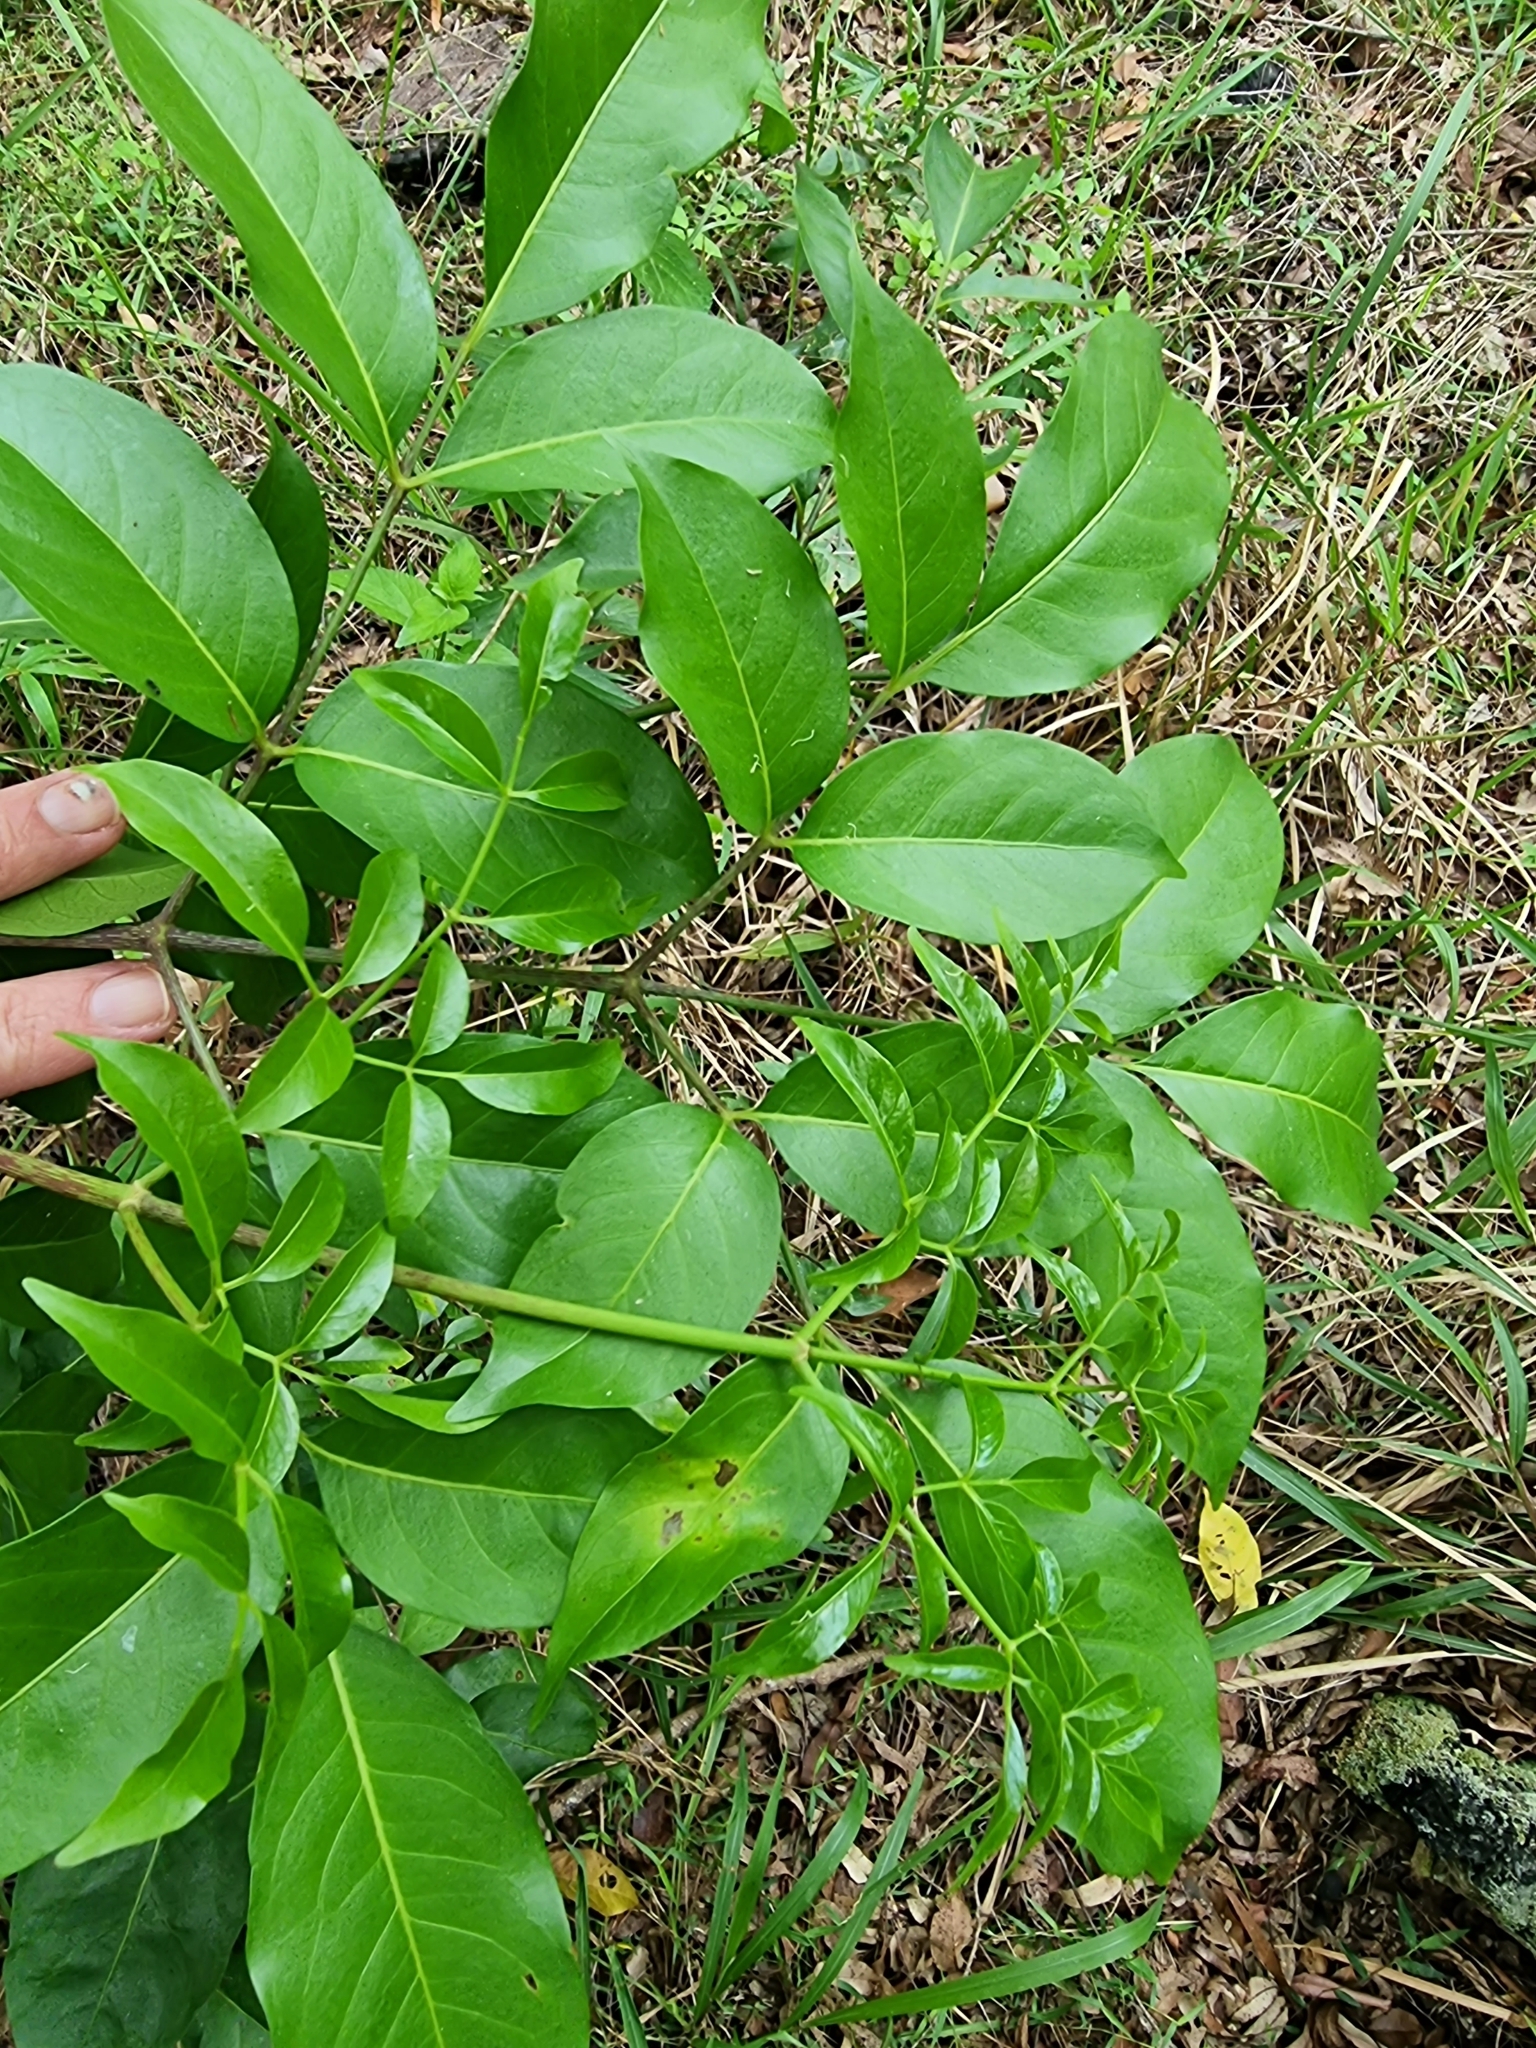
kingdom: Plantae
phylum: Tracheophyta
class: Magnoliopsida
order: Apiales
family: Araliaceae
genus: Polyscias
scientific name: Polyscias elegans
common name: Mowbulan whitewood
